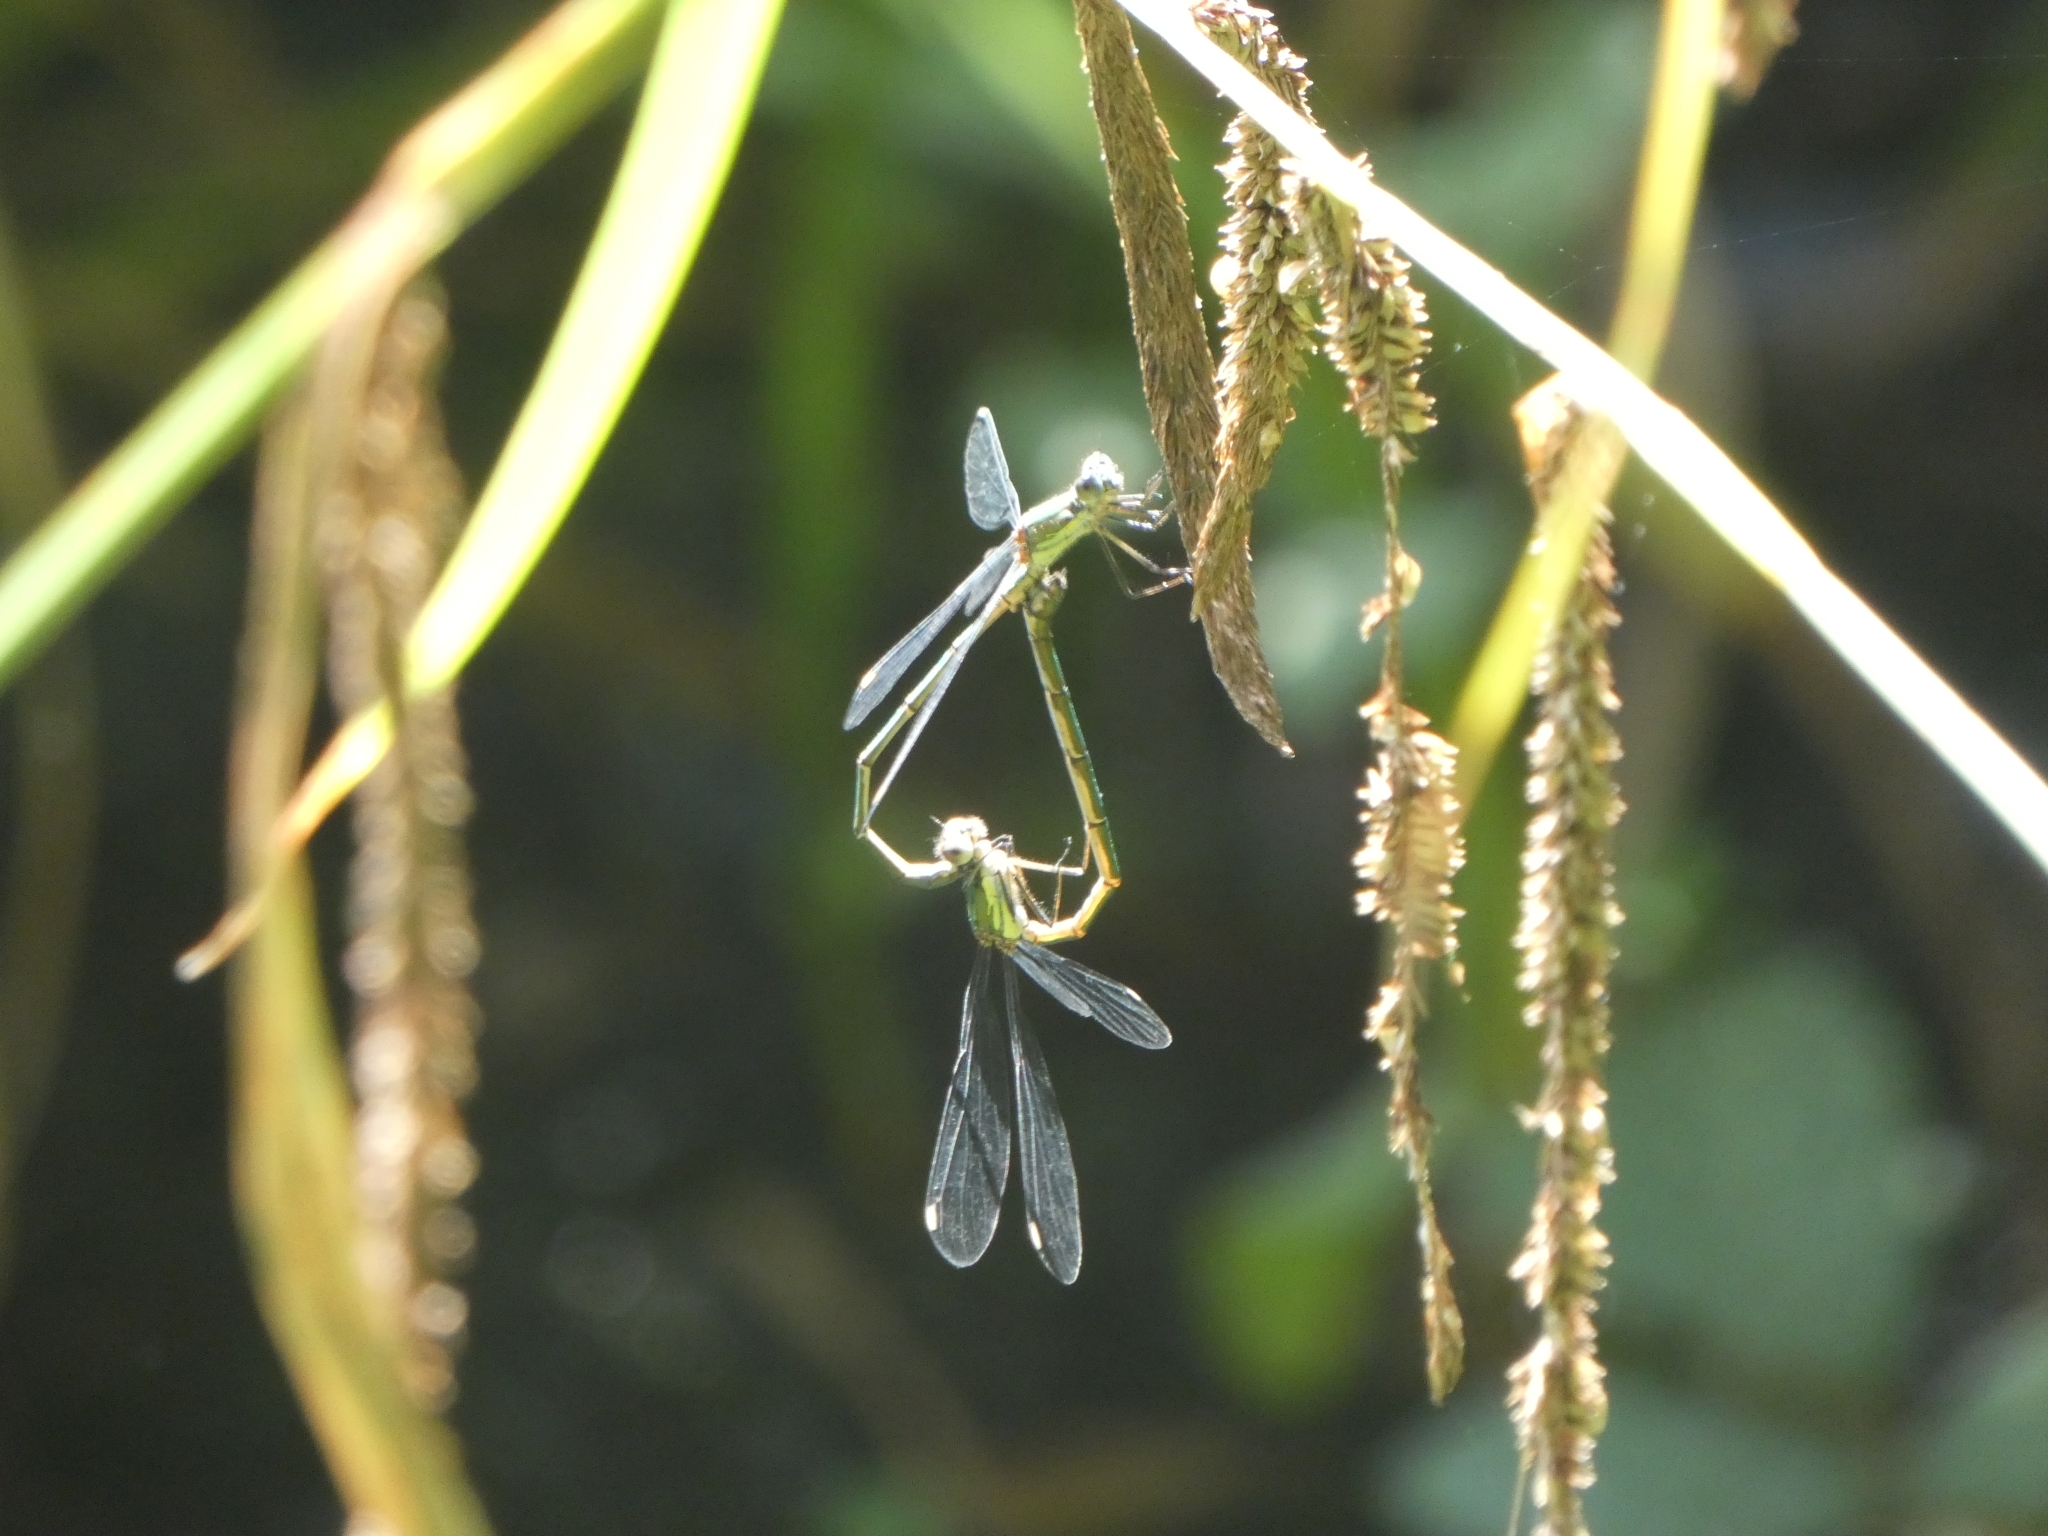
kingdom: Animalia
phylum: Arthropoda
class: Insecta
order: Odonata
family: Lestidae
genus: Chalcolestes
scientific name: Chalcolestes viridis
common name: Green emerald damselfly
